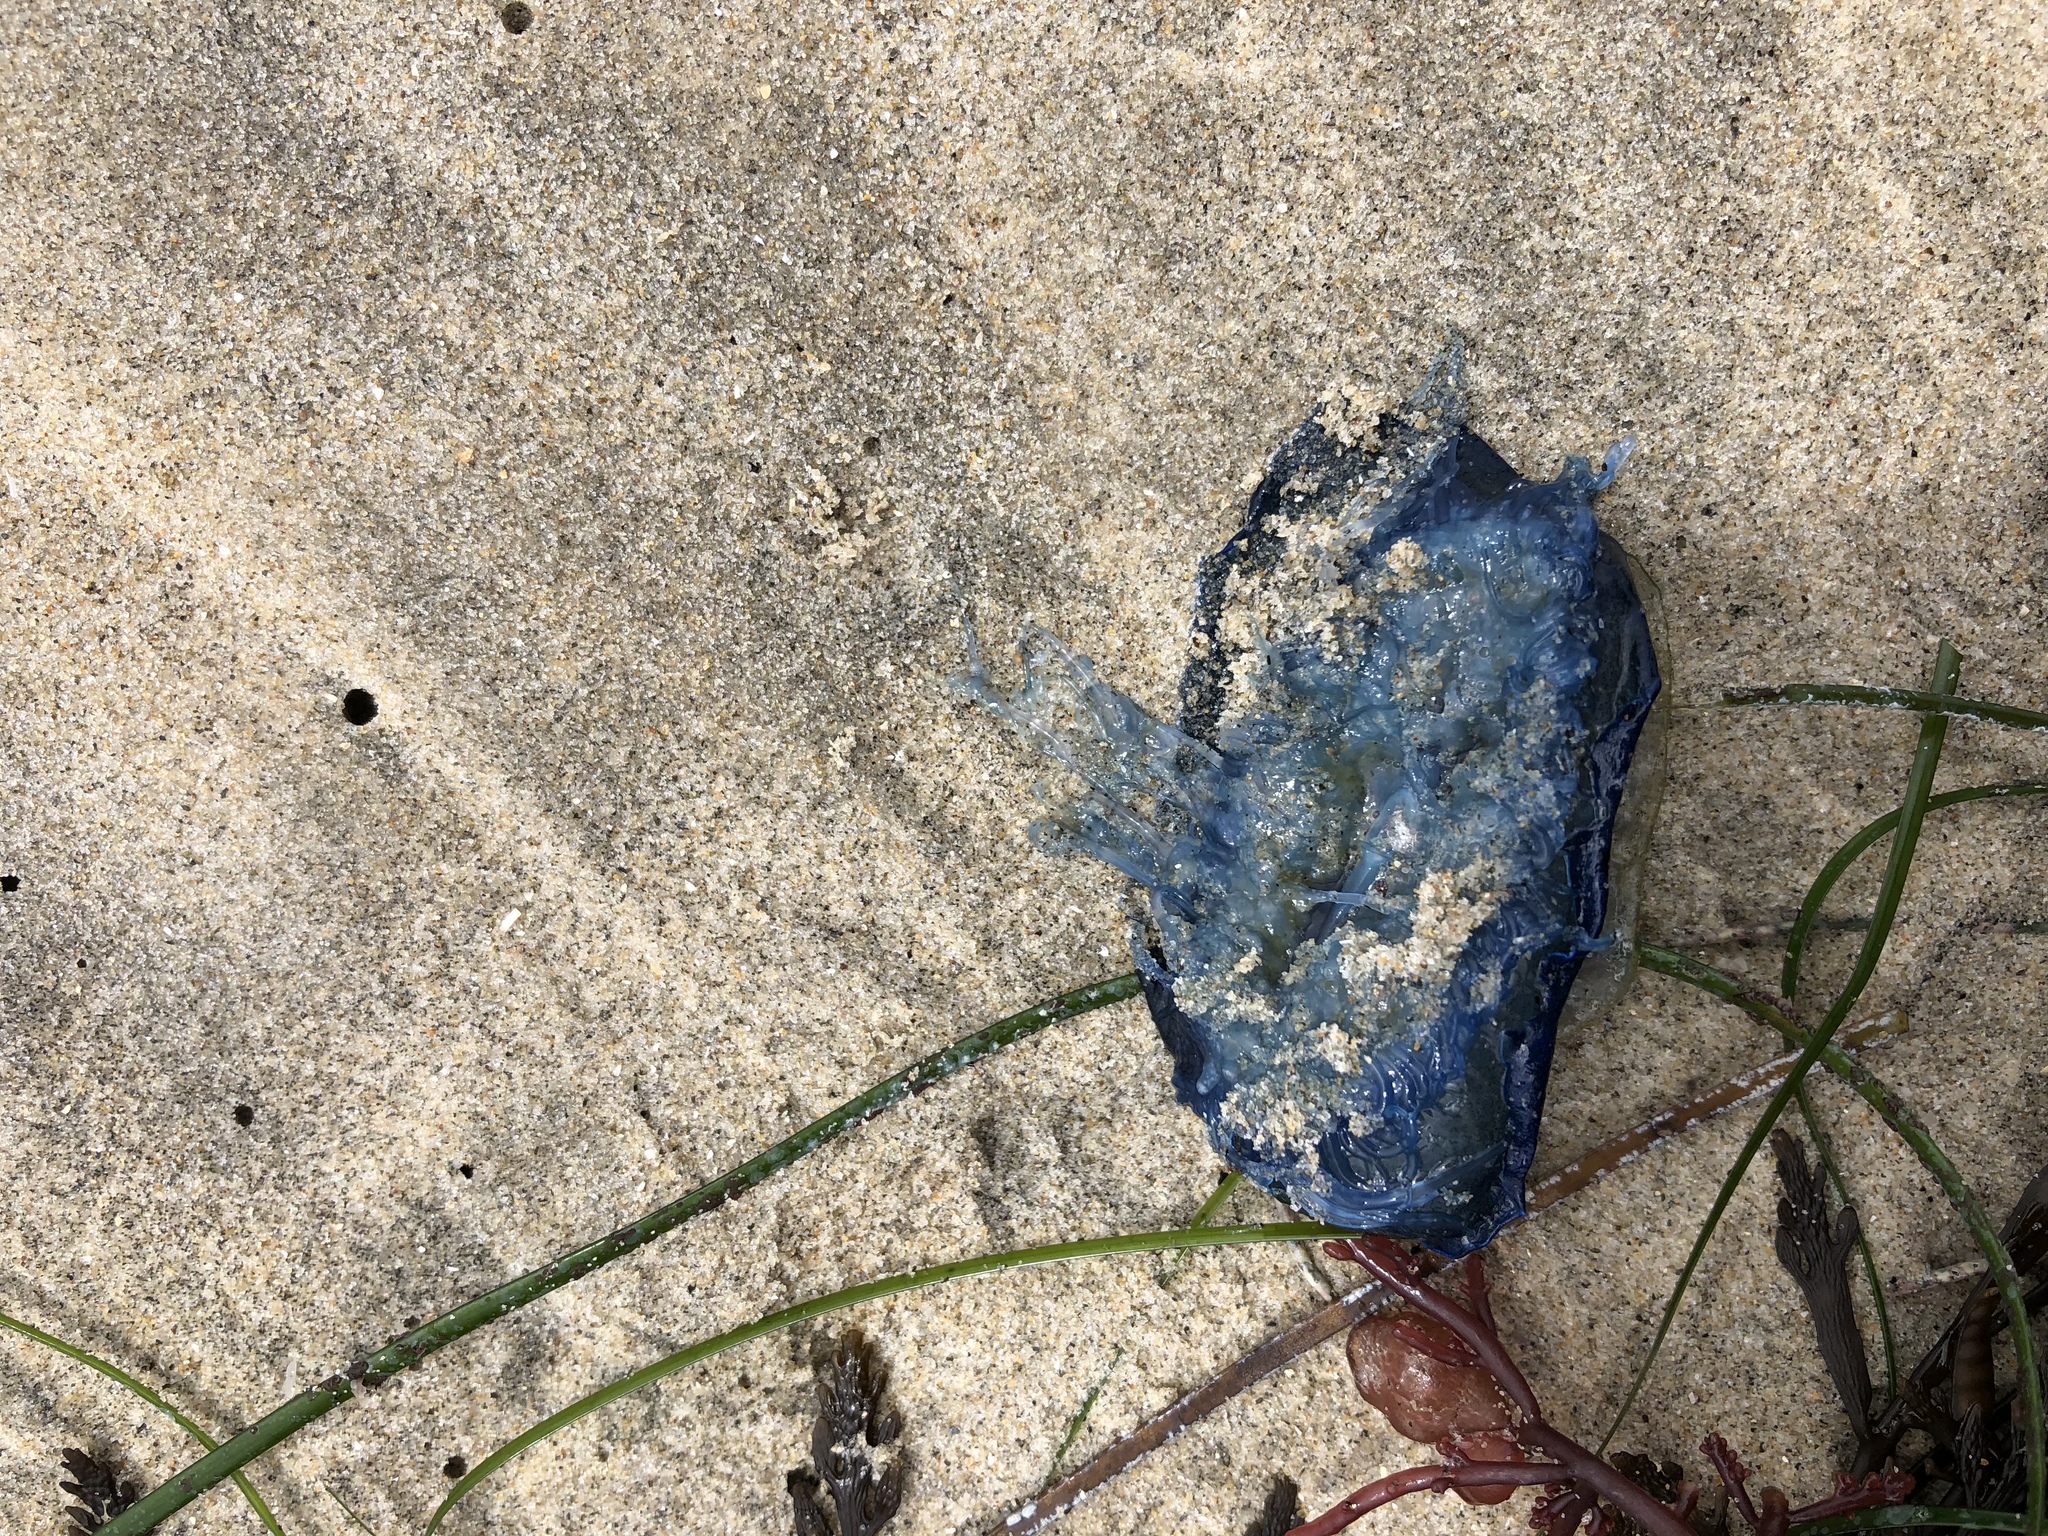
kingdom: Animalia
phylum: Cnidaria
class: Hydrozoa
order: Anthoathecata
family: Porpitidae
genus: Velella
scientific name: Velella velella
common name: By-the-wind-sailor
